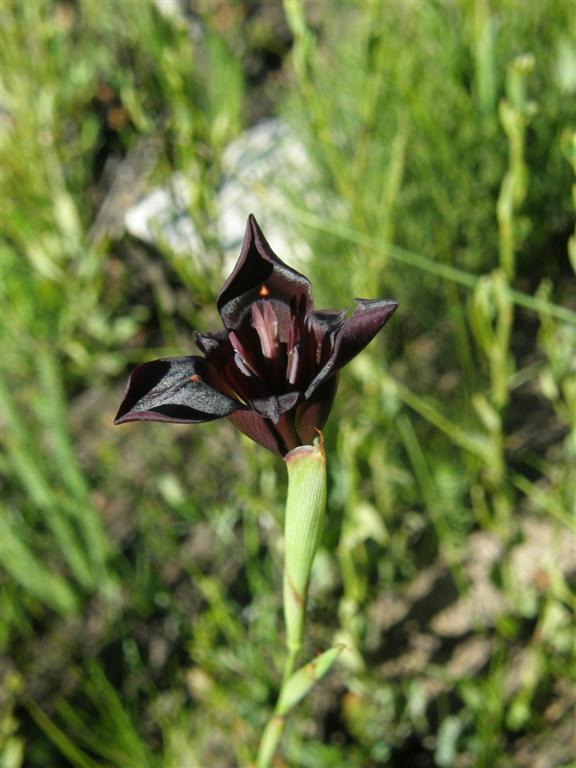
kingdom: Plantae
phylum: Tracheophyta
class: Liliopsida
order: Asparagales
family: Iridaceae
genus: Moraea
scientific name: Moraea lurida
